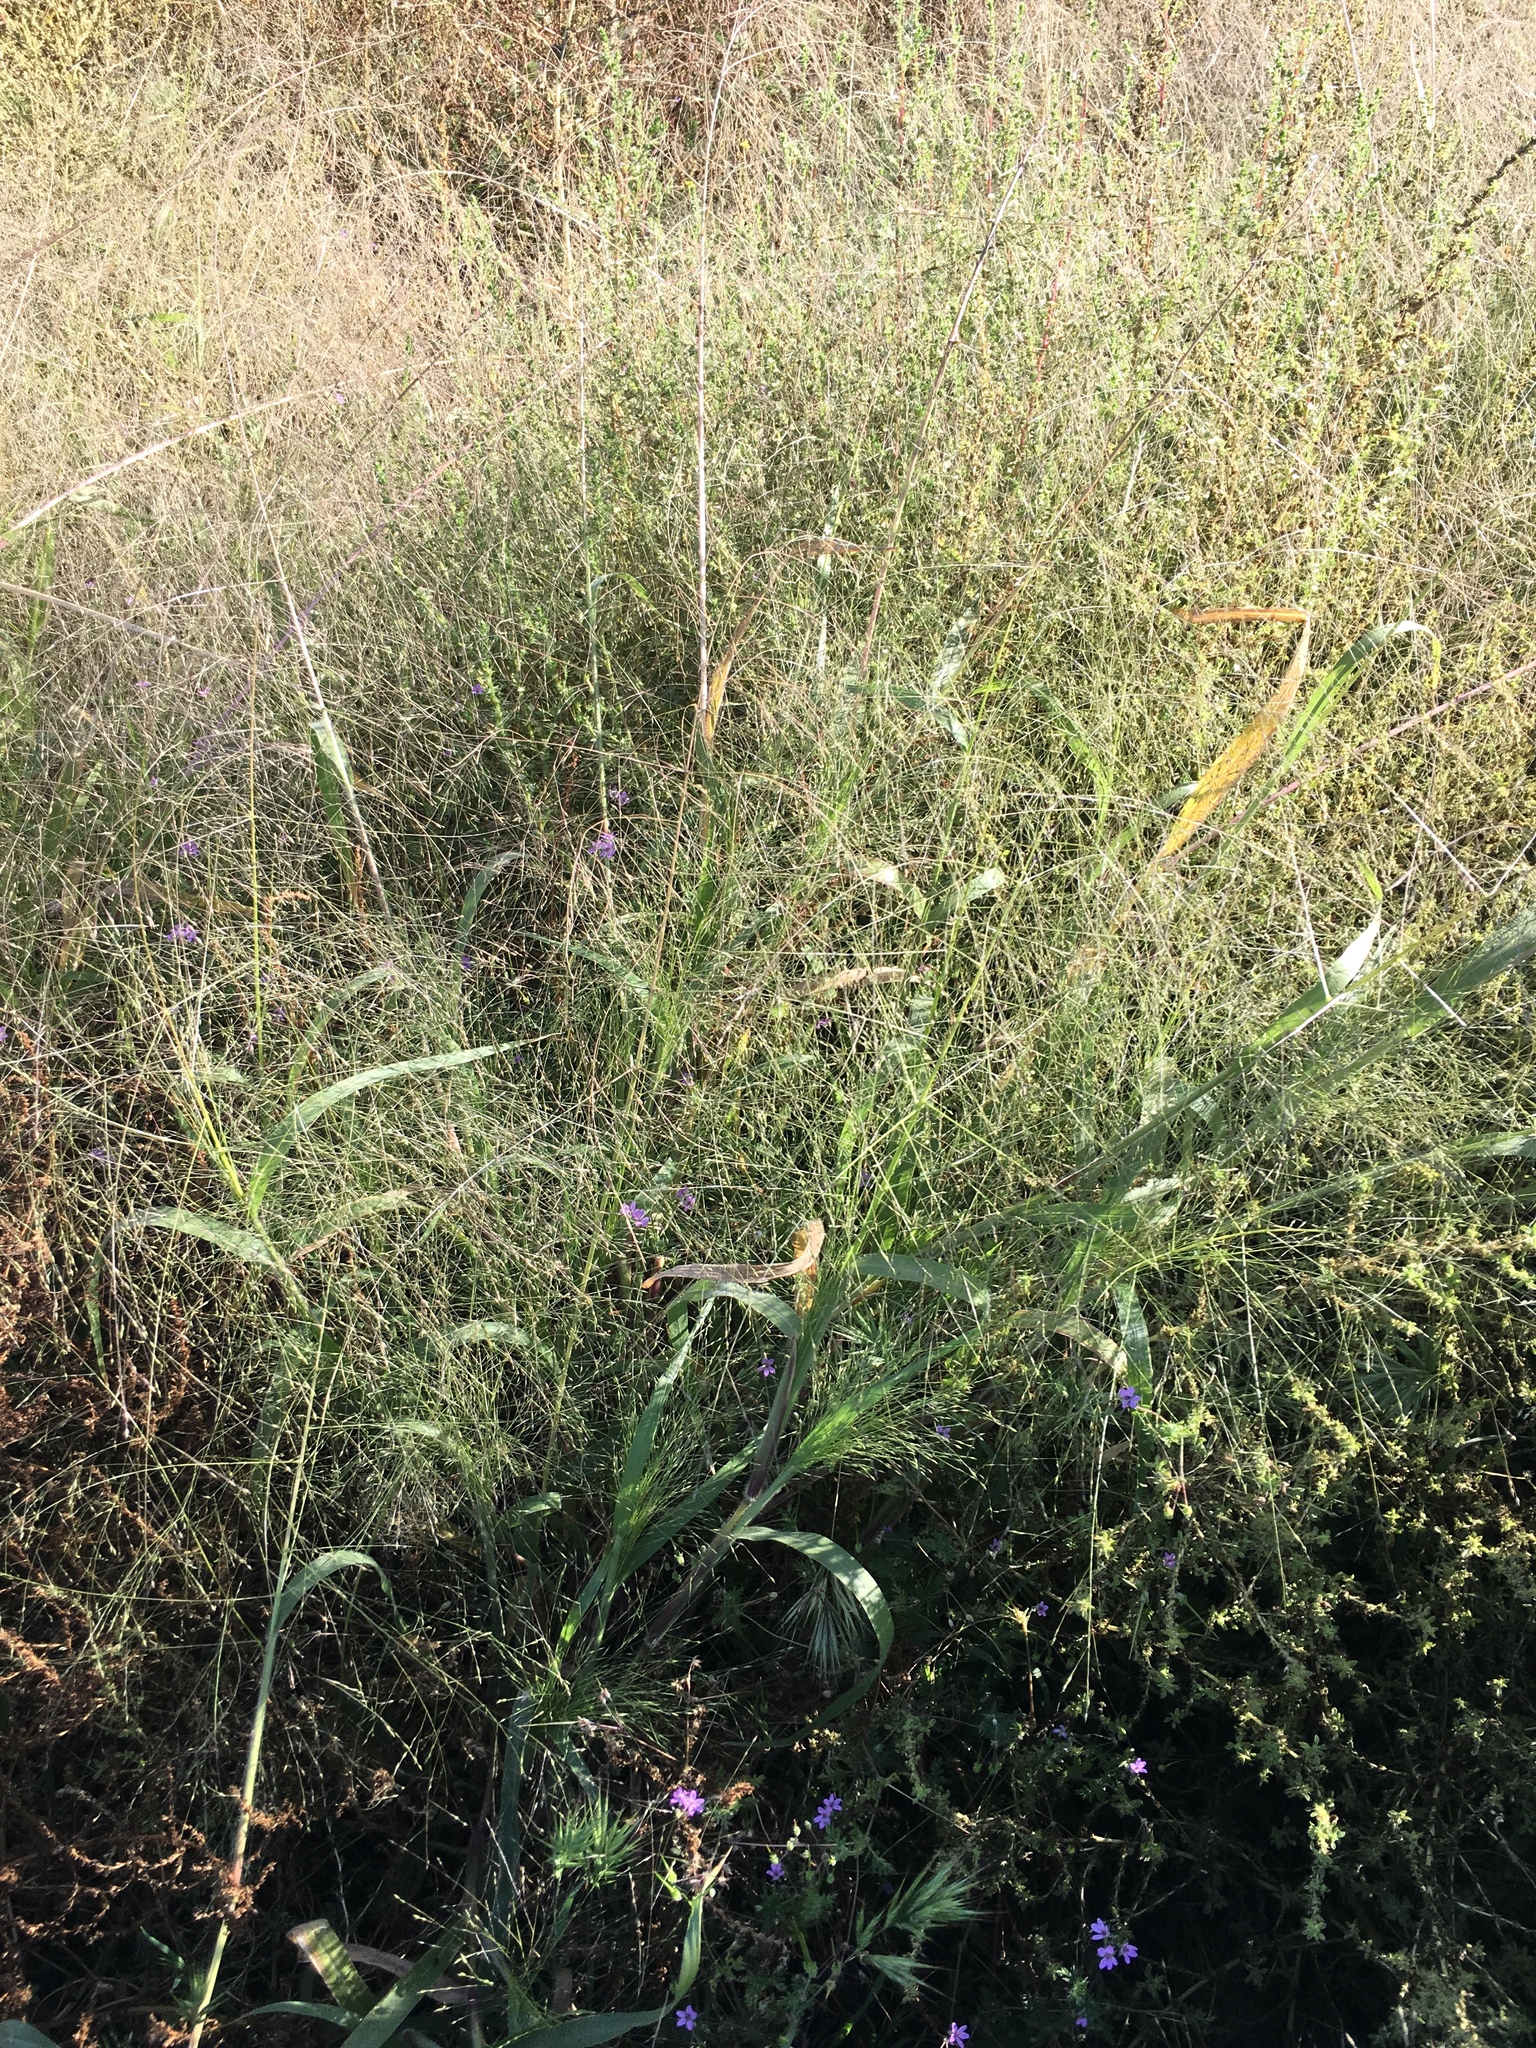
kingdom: Plantae
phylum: Tracheophyta
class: Liliopsida
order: Poales
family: Poaceae
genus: Panicum
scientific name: Panicum capillare
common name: Witch-grass
